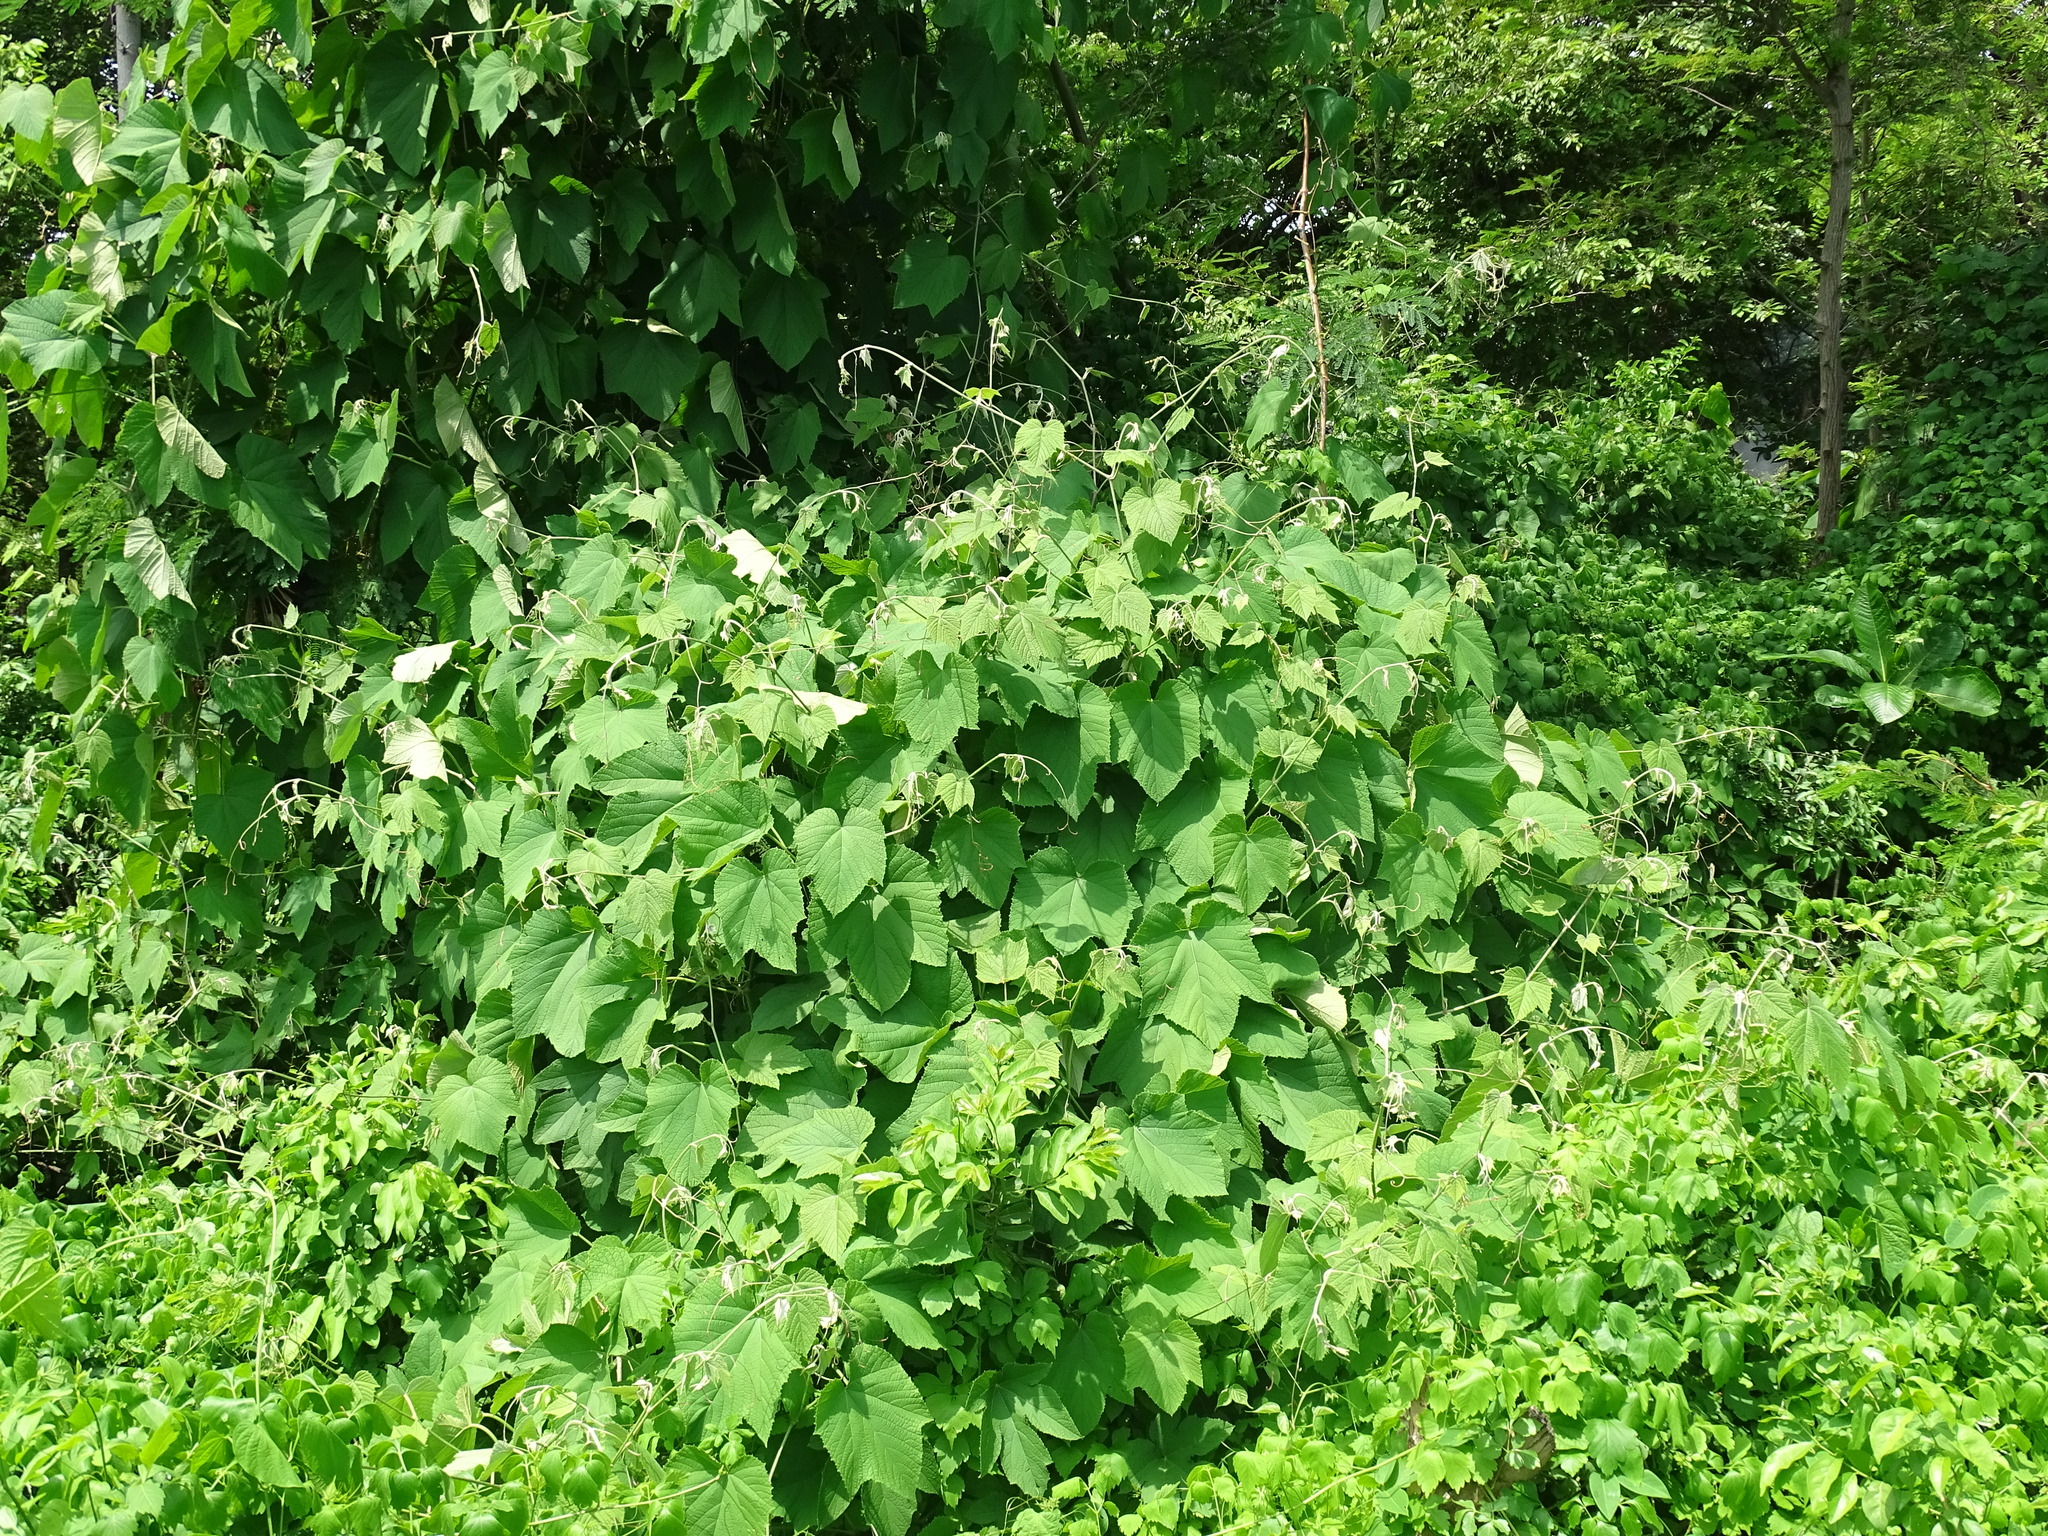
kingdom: Plantae
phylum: Tracheophyta
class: Magnoliopsida
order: Vitales
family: Vitaceae
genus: Ampelocissus
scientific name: Ampelocissus mesoamericana
